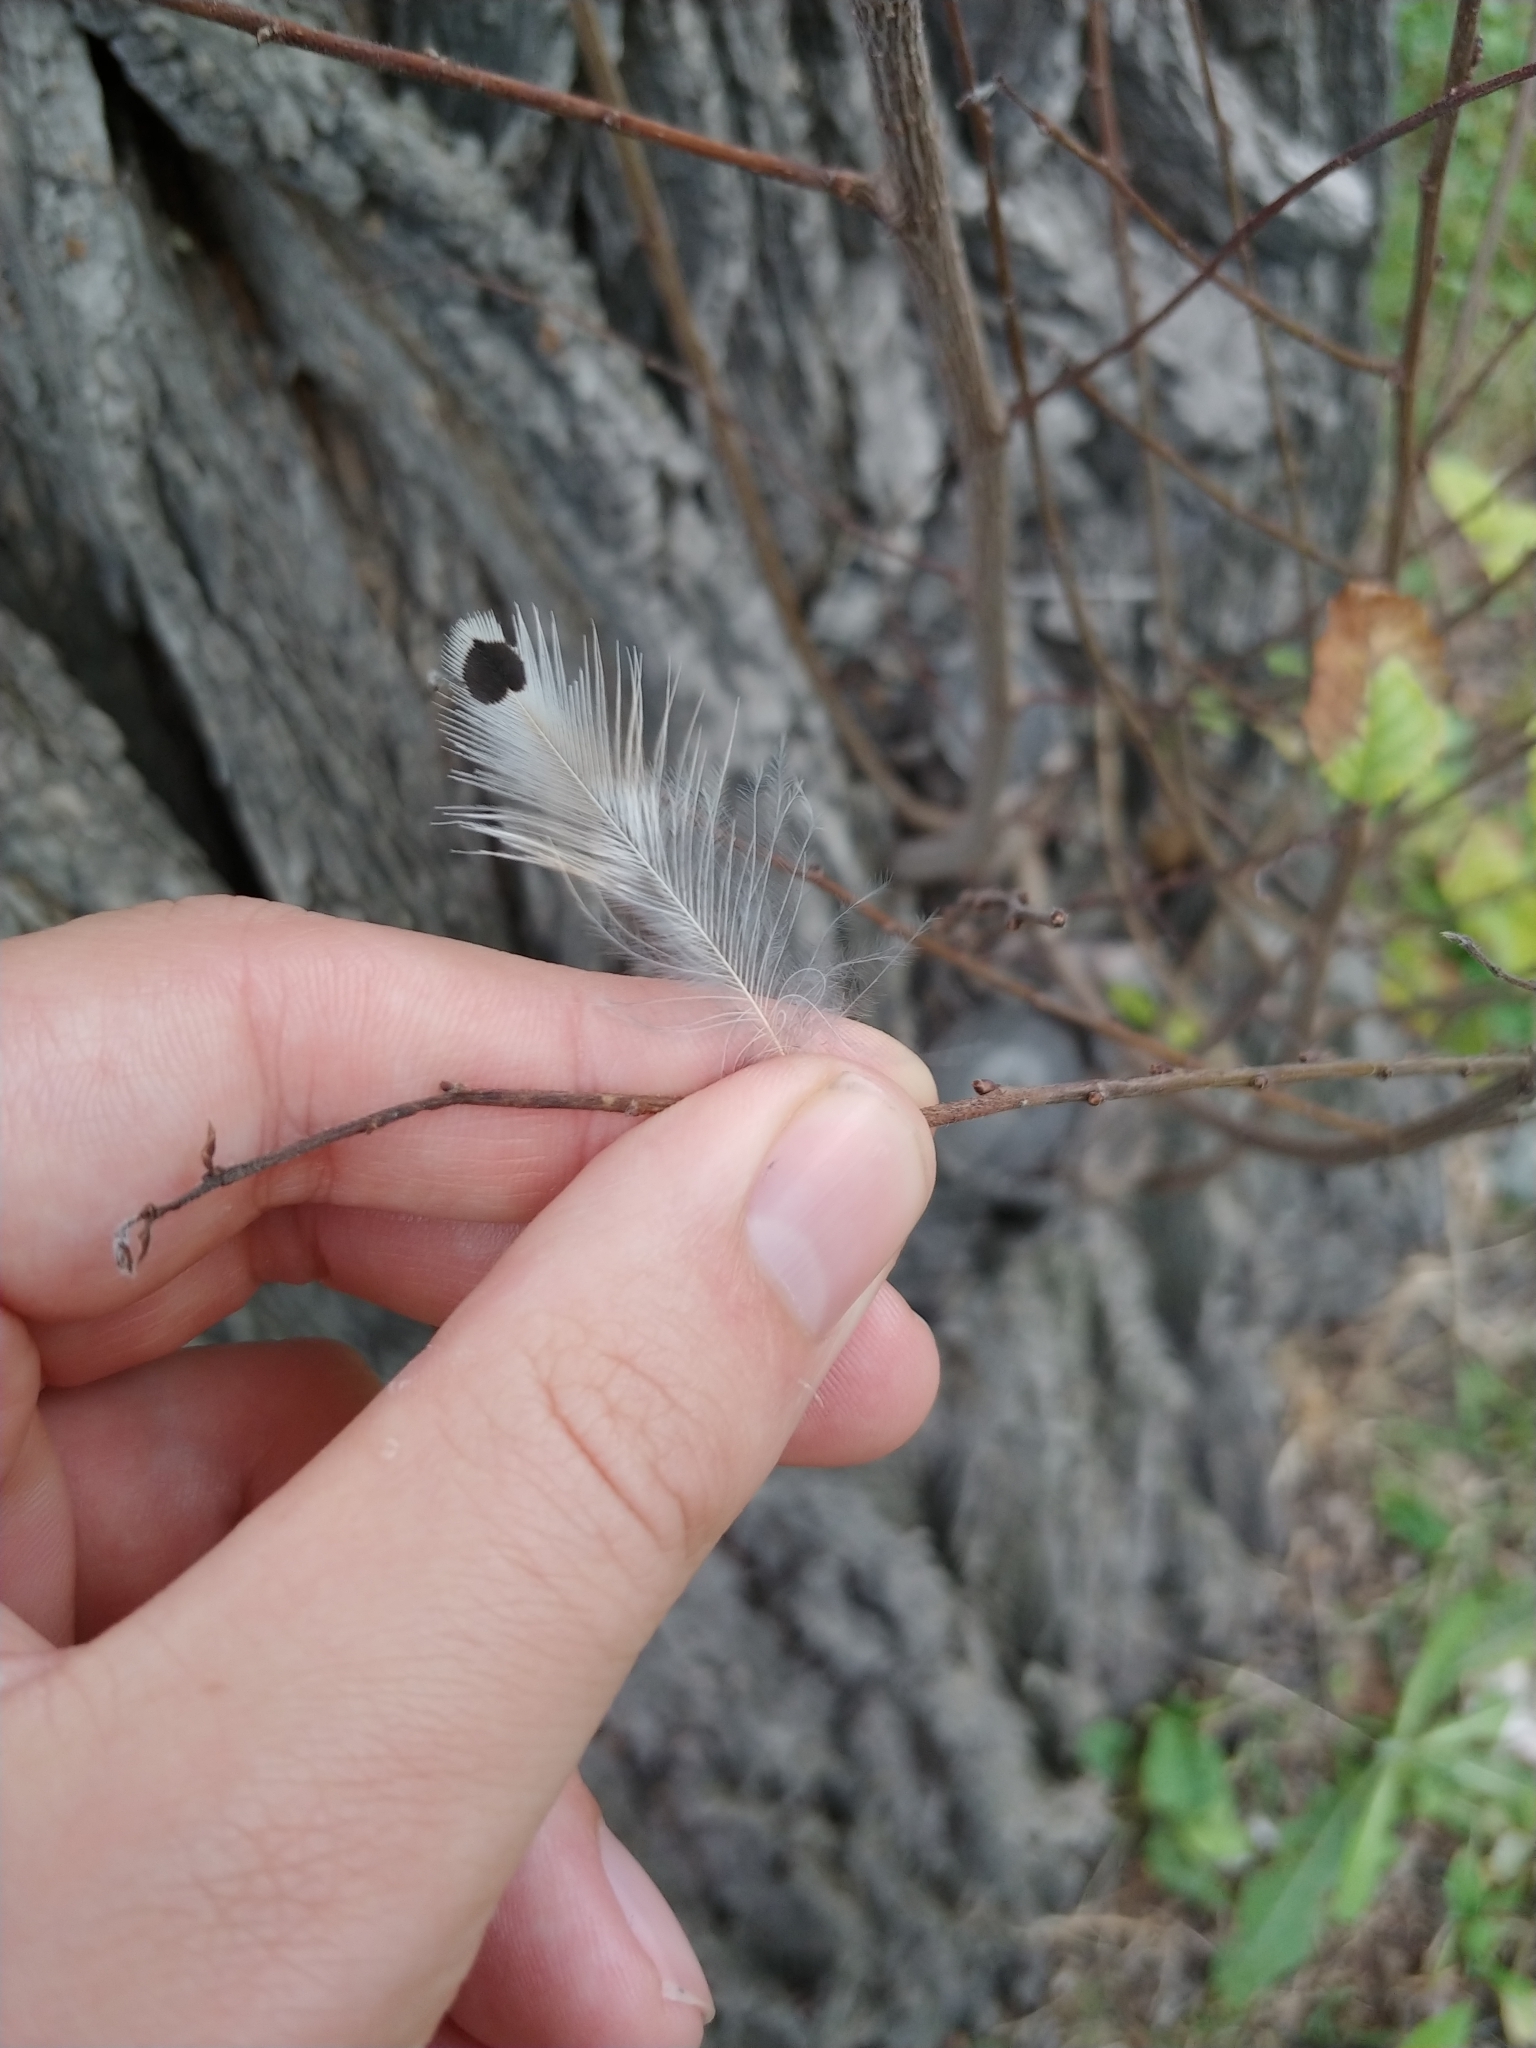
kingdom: Animalia
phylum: Chordata
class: Aves
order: Piciformes
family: Picidae
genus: Colaptes
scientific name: Colaptes auratus
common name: Northern flicker
